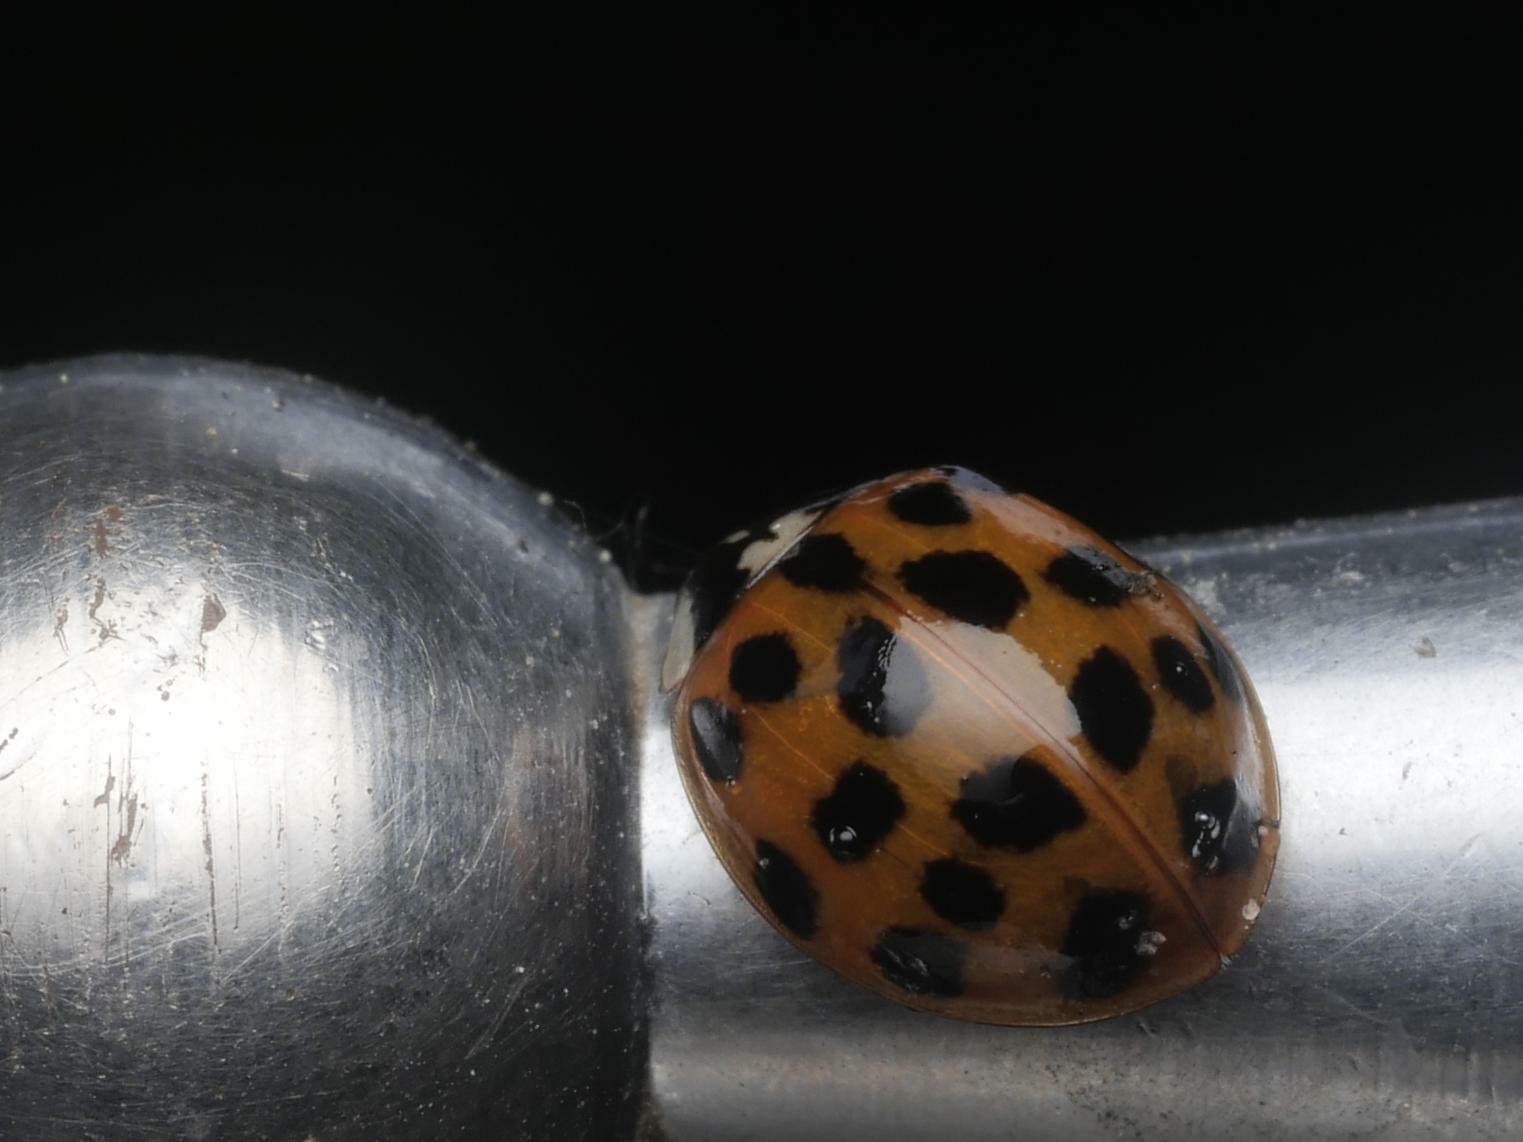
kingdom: Animalia
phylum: Arthropoda
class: Insecta
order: Coleoptera
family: Coccinellidae
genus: Harmonia
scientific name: Harmonia axyridis
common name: Harlequin ladybird
